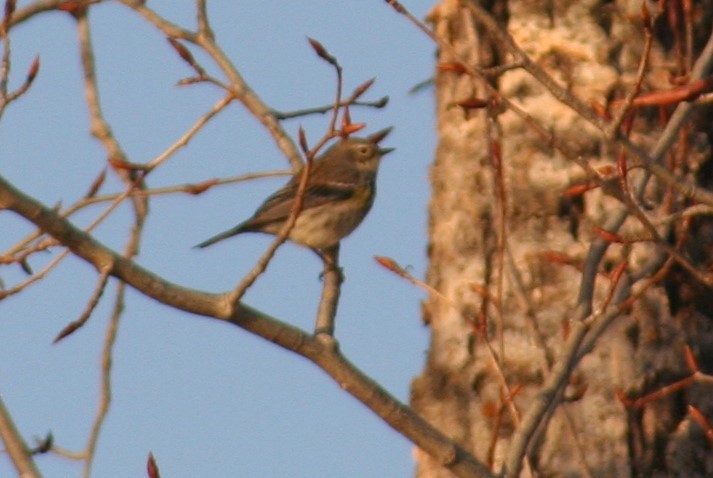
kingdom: Animalia
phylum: Chordata
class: Aves
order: Passeriformes
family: Parulidae
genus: Setophaga
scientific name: Setophaga coronata
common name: Myrtle warbler
